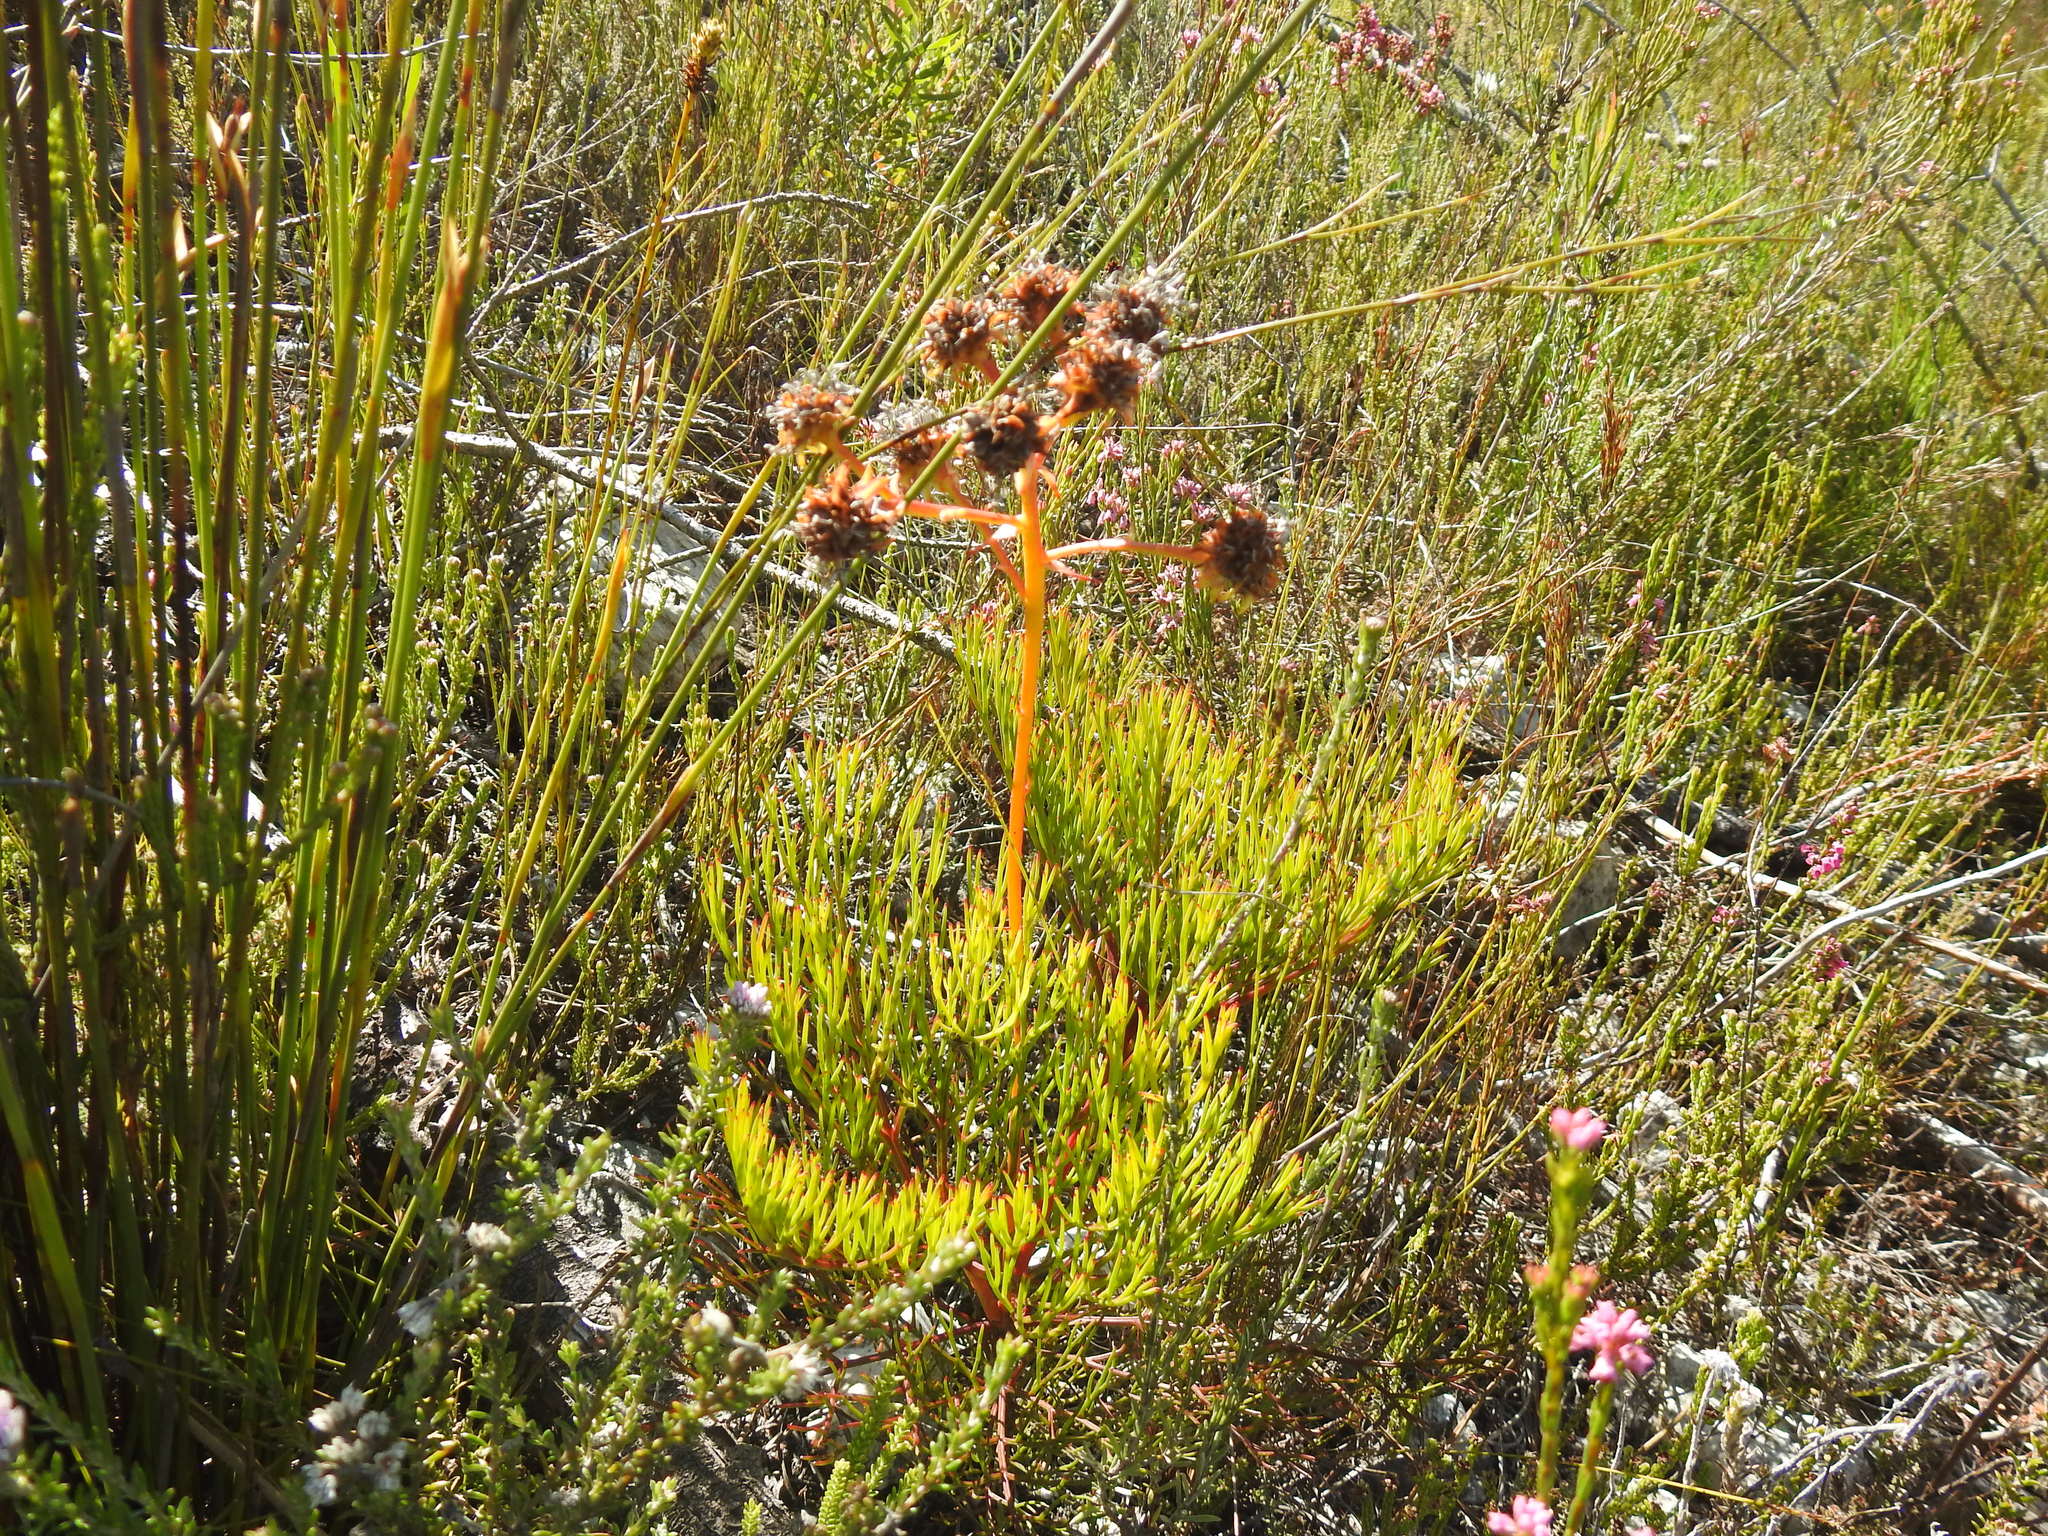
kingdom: Plantae
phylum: Tracheophyta
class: Magnoliopsida
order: Proteales
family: Proteaceae
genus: Serruria
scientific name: Serruria elongata
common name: Long-stalk spiderhead
